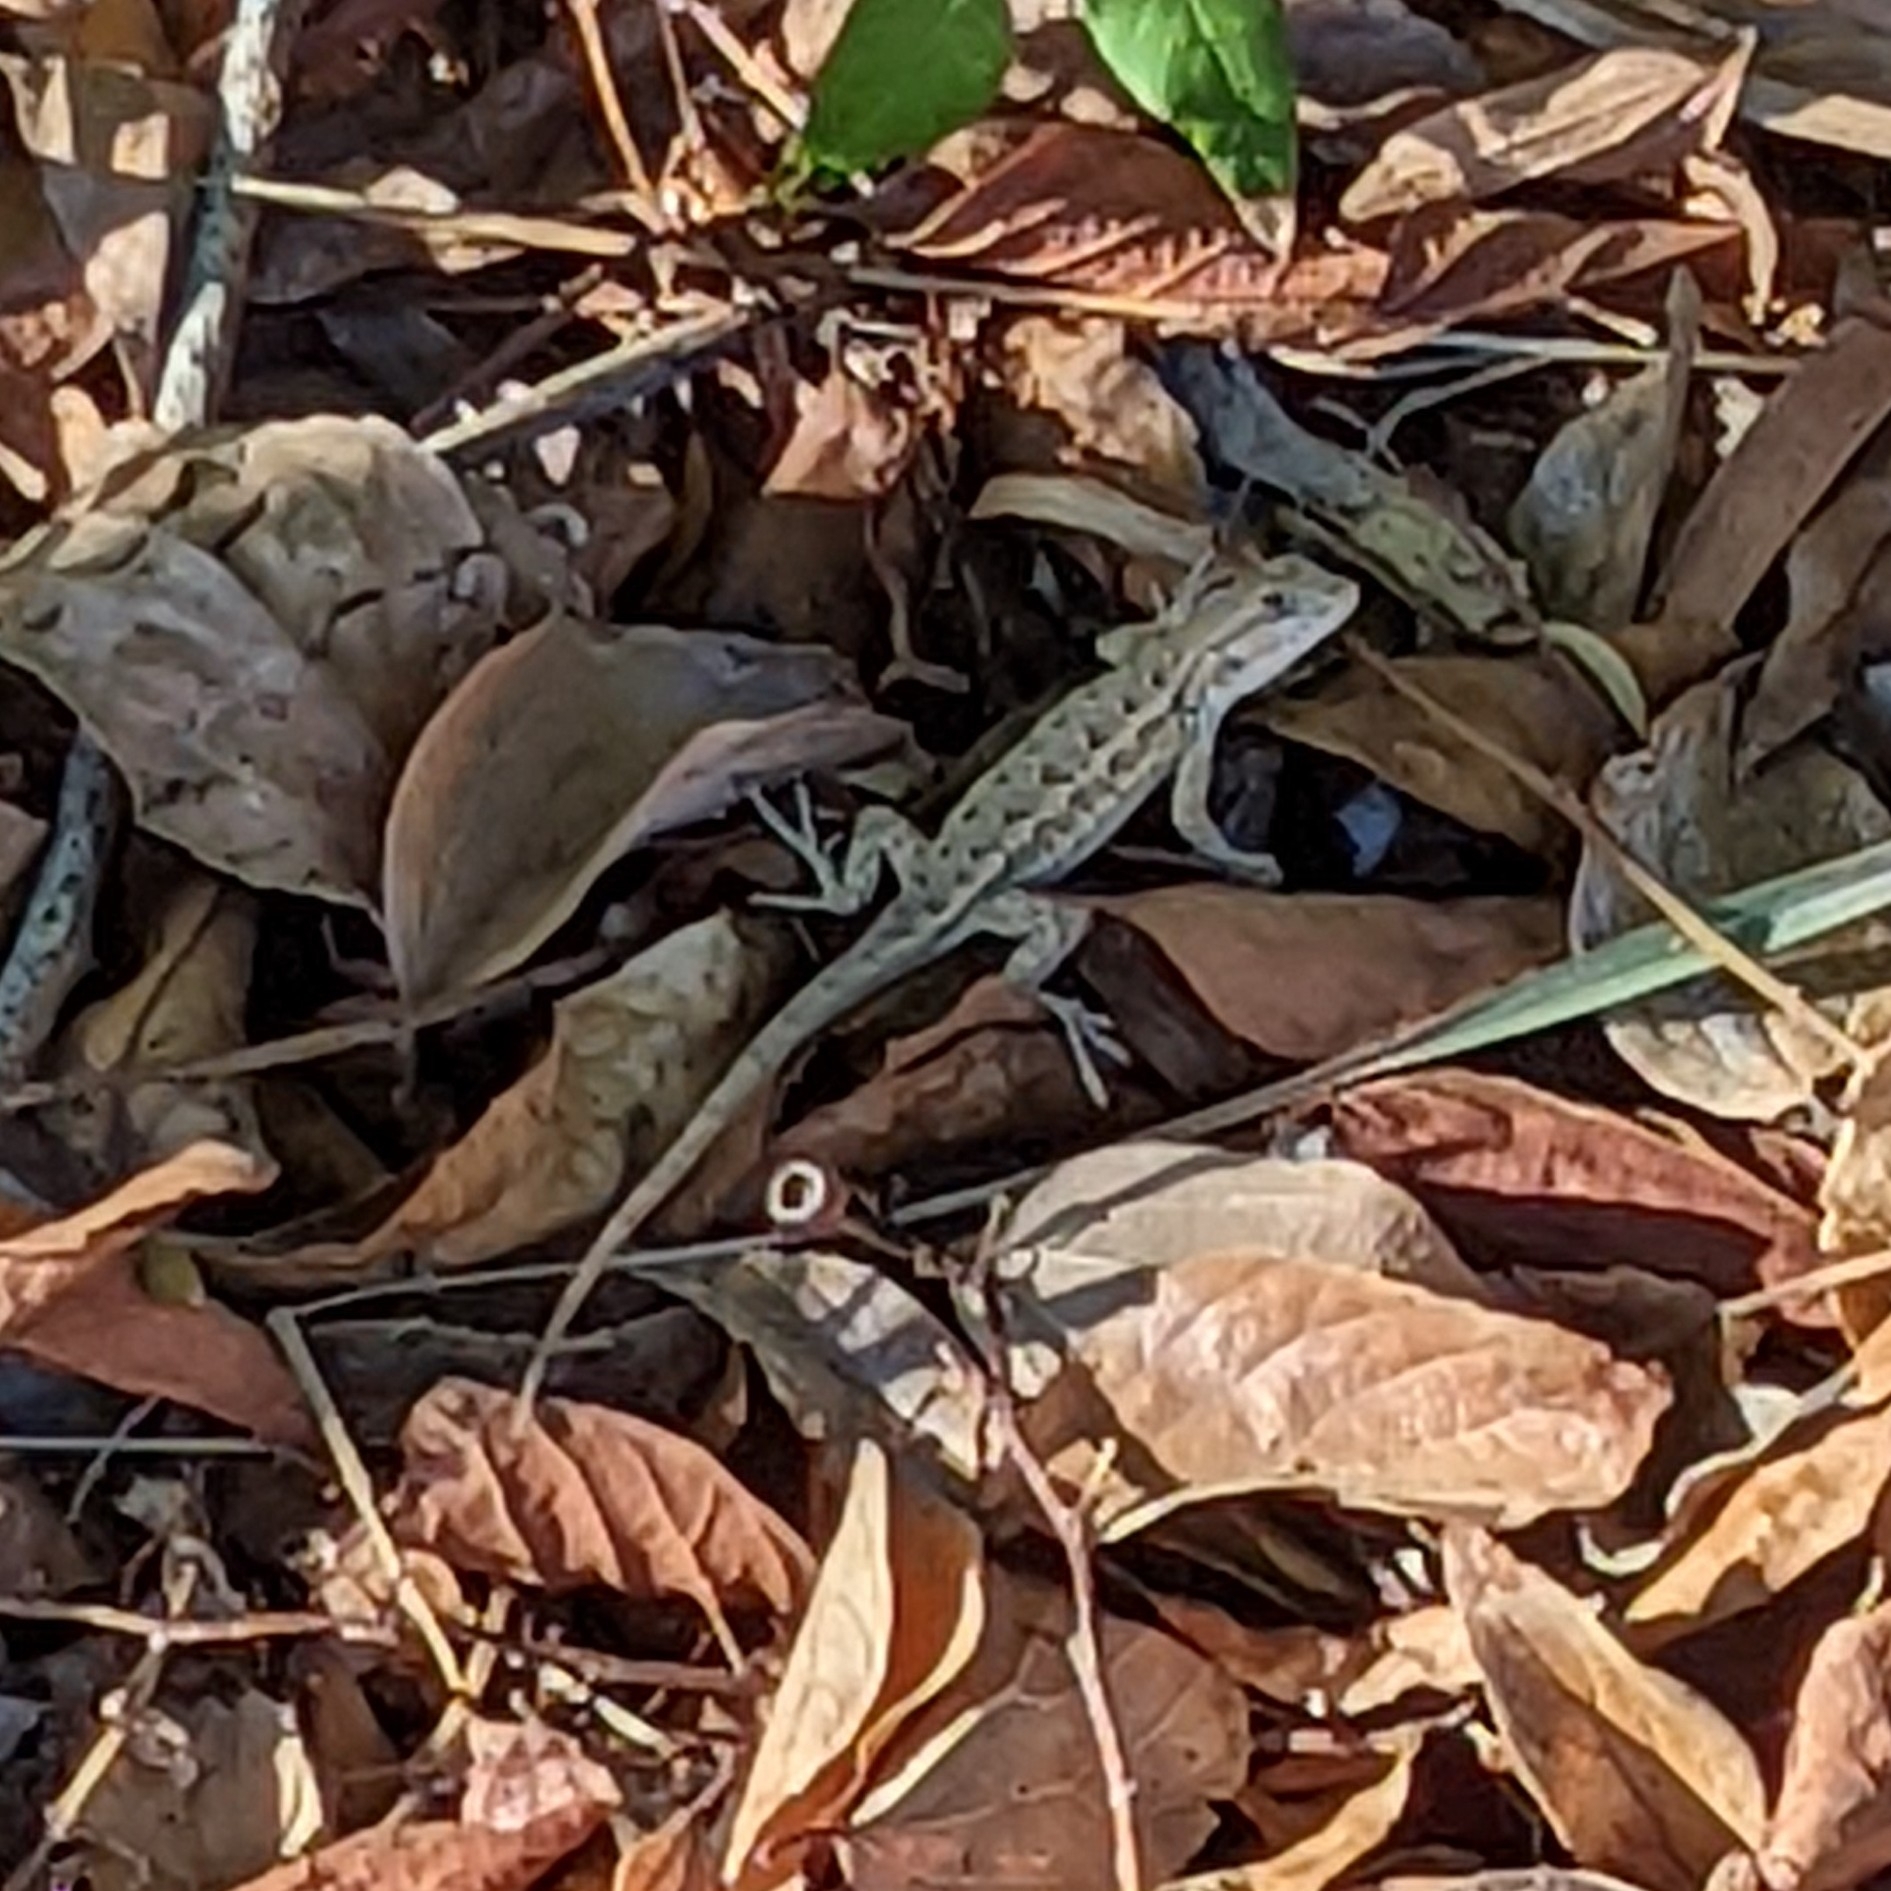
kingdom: Animalia
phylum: Chordata
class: Squamata
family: Phrynosomatidae
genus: Sceloporus
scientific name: Sceloporus occidentalis
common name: Western fence lizard
